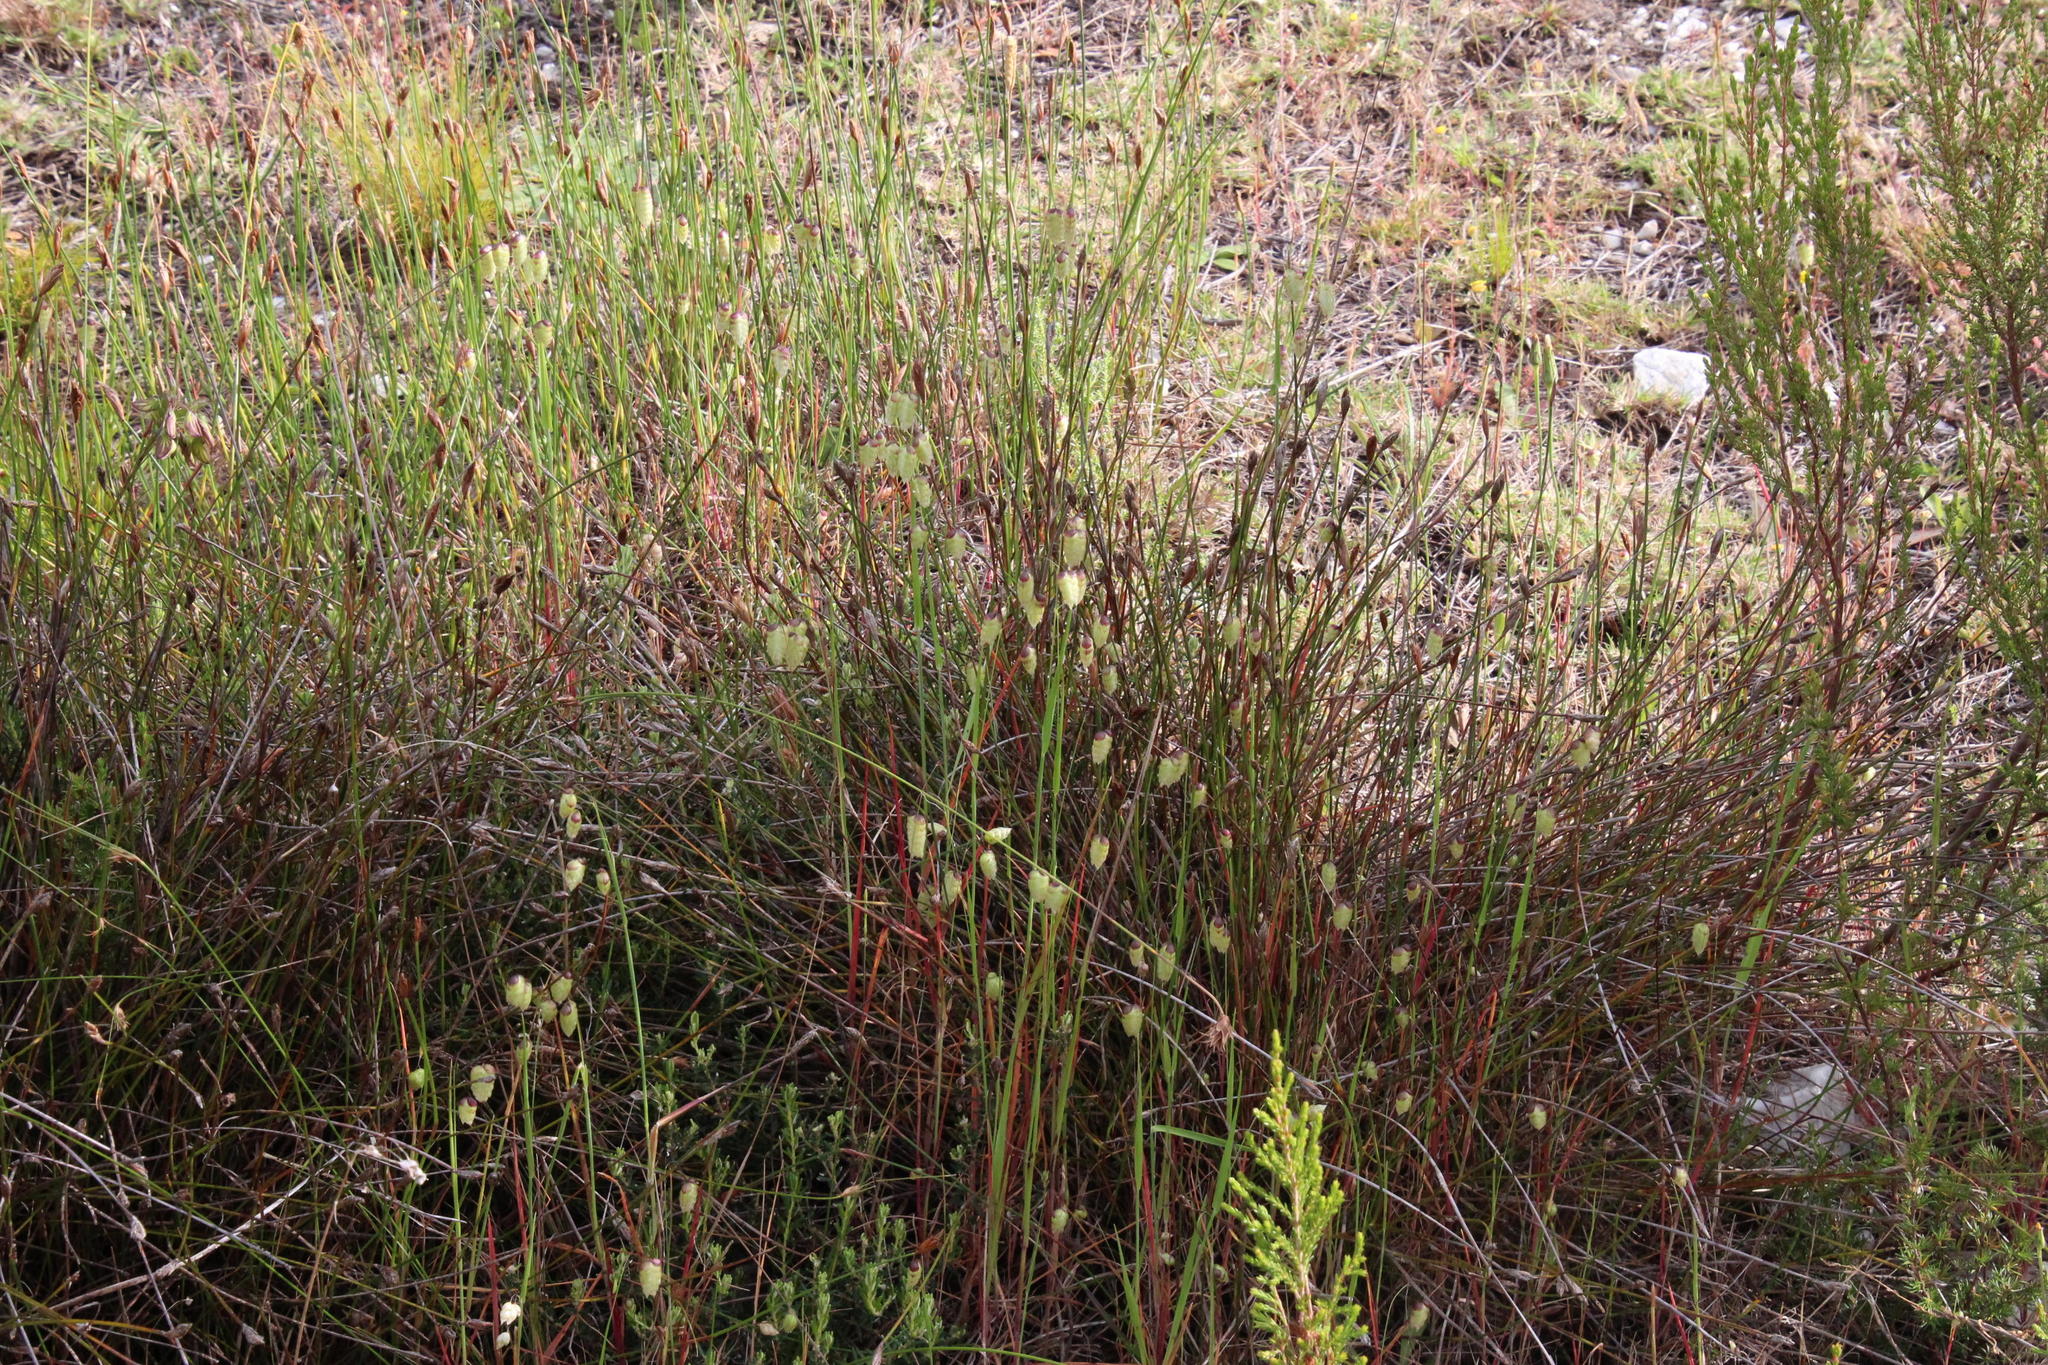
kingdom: Plantae
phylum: Tracheophyta
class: Liliopsida
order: Poales
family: Poaceae
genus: Briza
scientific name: Briza maxima
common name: Big quakinggrass
